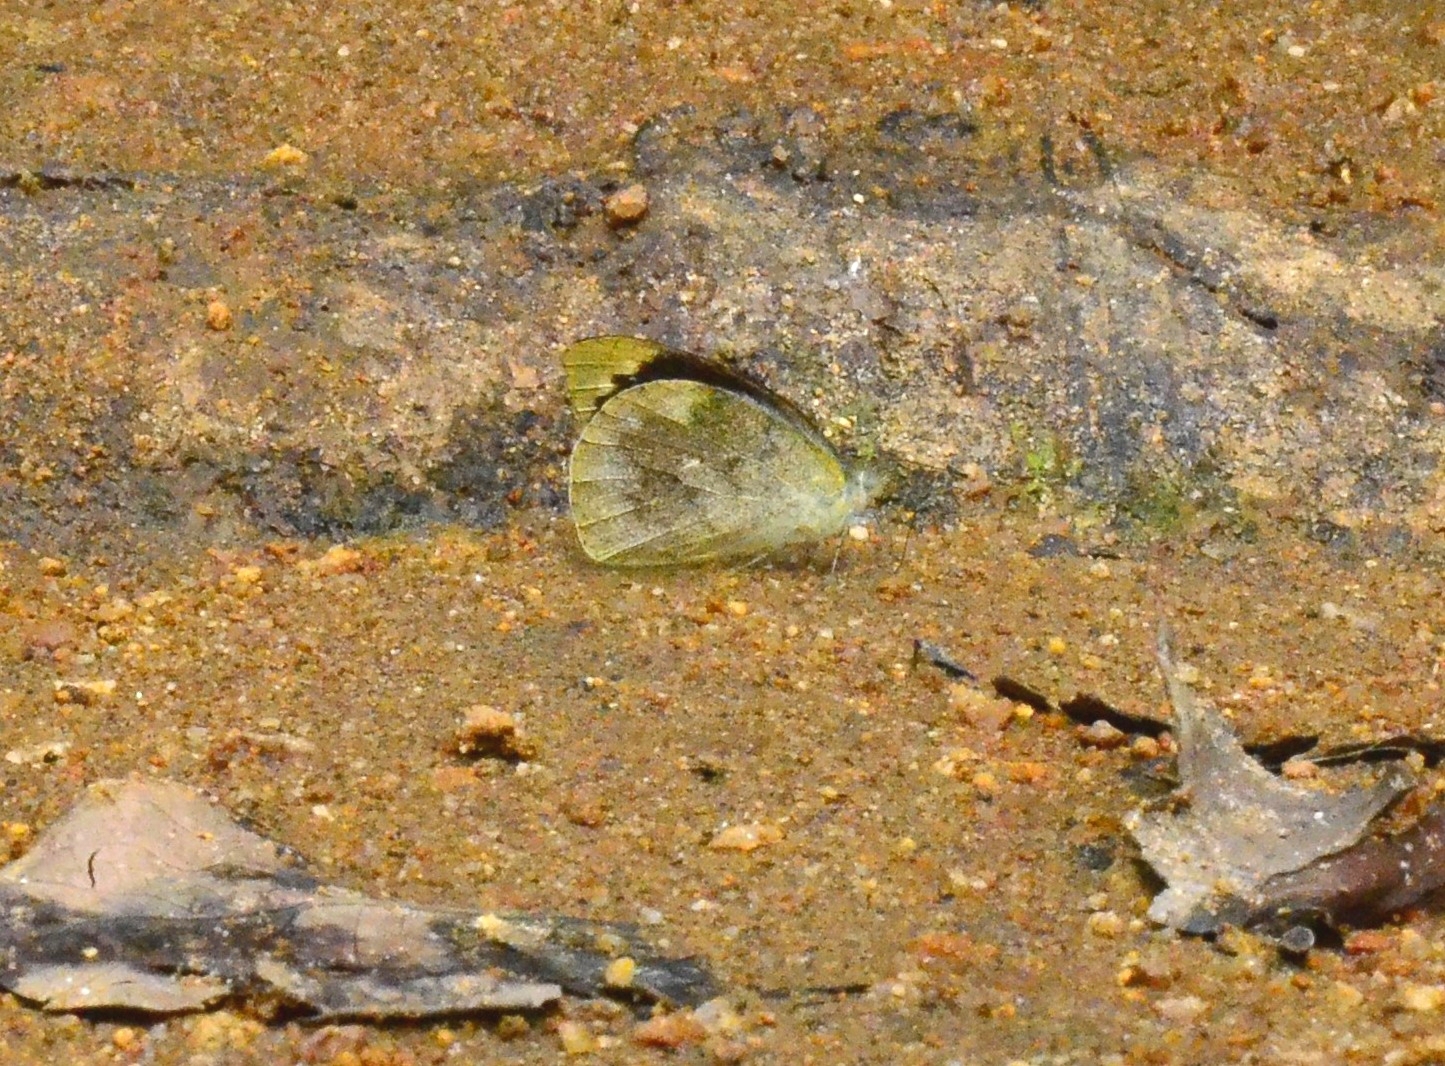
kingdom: Animalia
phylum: Arthropoda
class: Insecta
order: Lepidoptera
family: Pieridae
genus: Appias
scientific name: Appias indra
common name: Plain puffin
